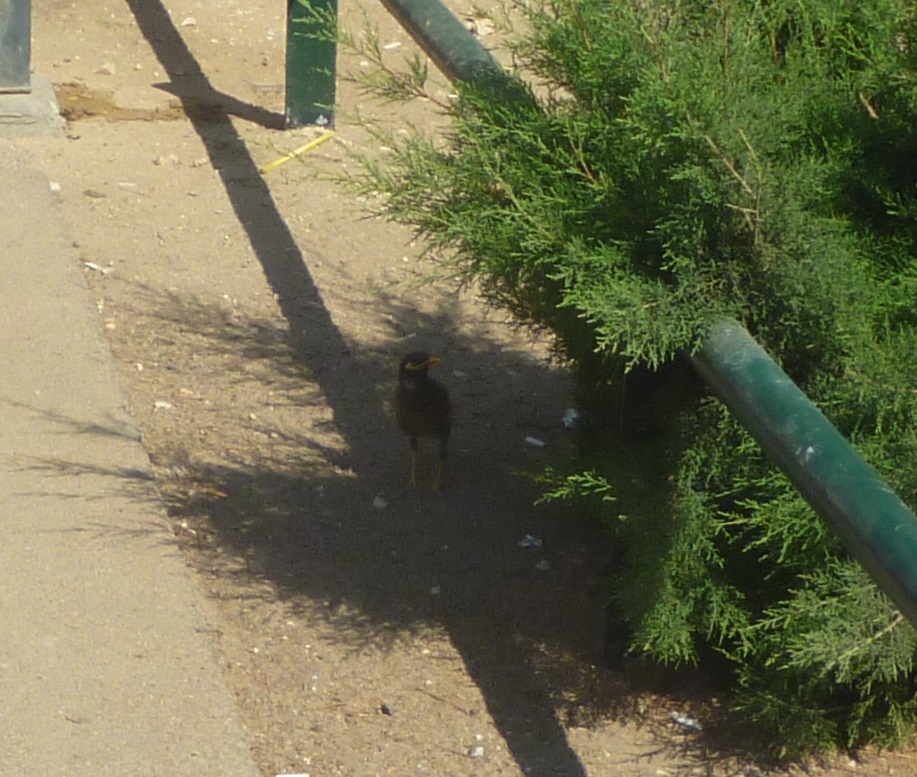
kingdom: Animalia
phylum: Chordata
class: Aves
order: Passeriformes
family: Sturnidae
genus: Acridotheres
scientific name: Acridotheres tristis
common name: Common myna
